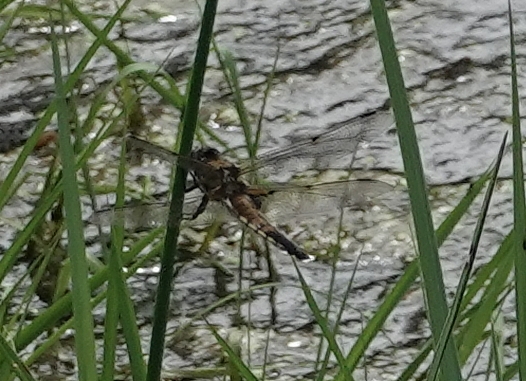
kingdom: Animalia
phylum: Arthropoda
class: Insecta
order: Odonata
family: Libellulidae
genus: Libellula
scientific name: Libellula quadrimaculata
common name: Four-spotted chaser
